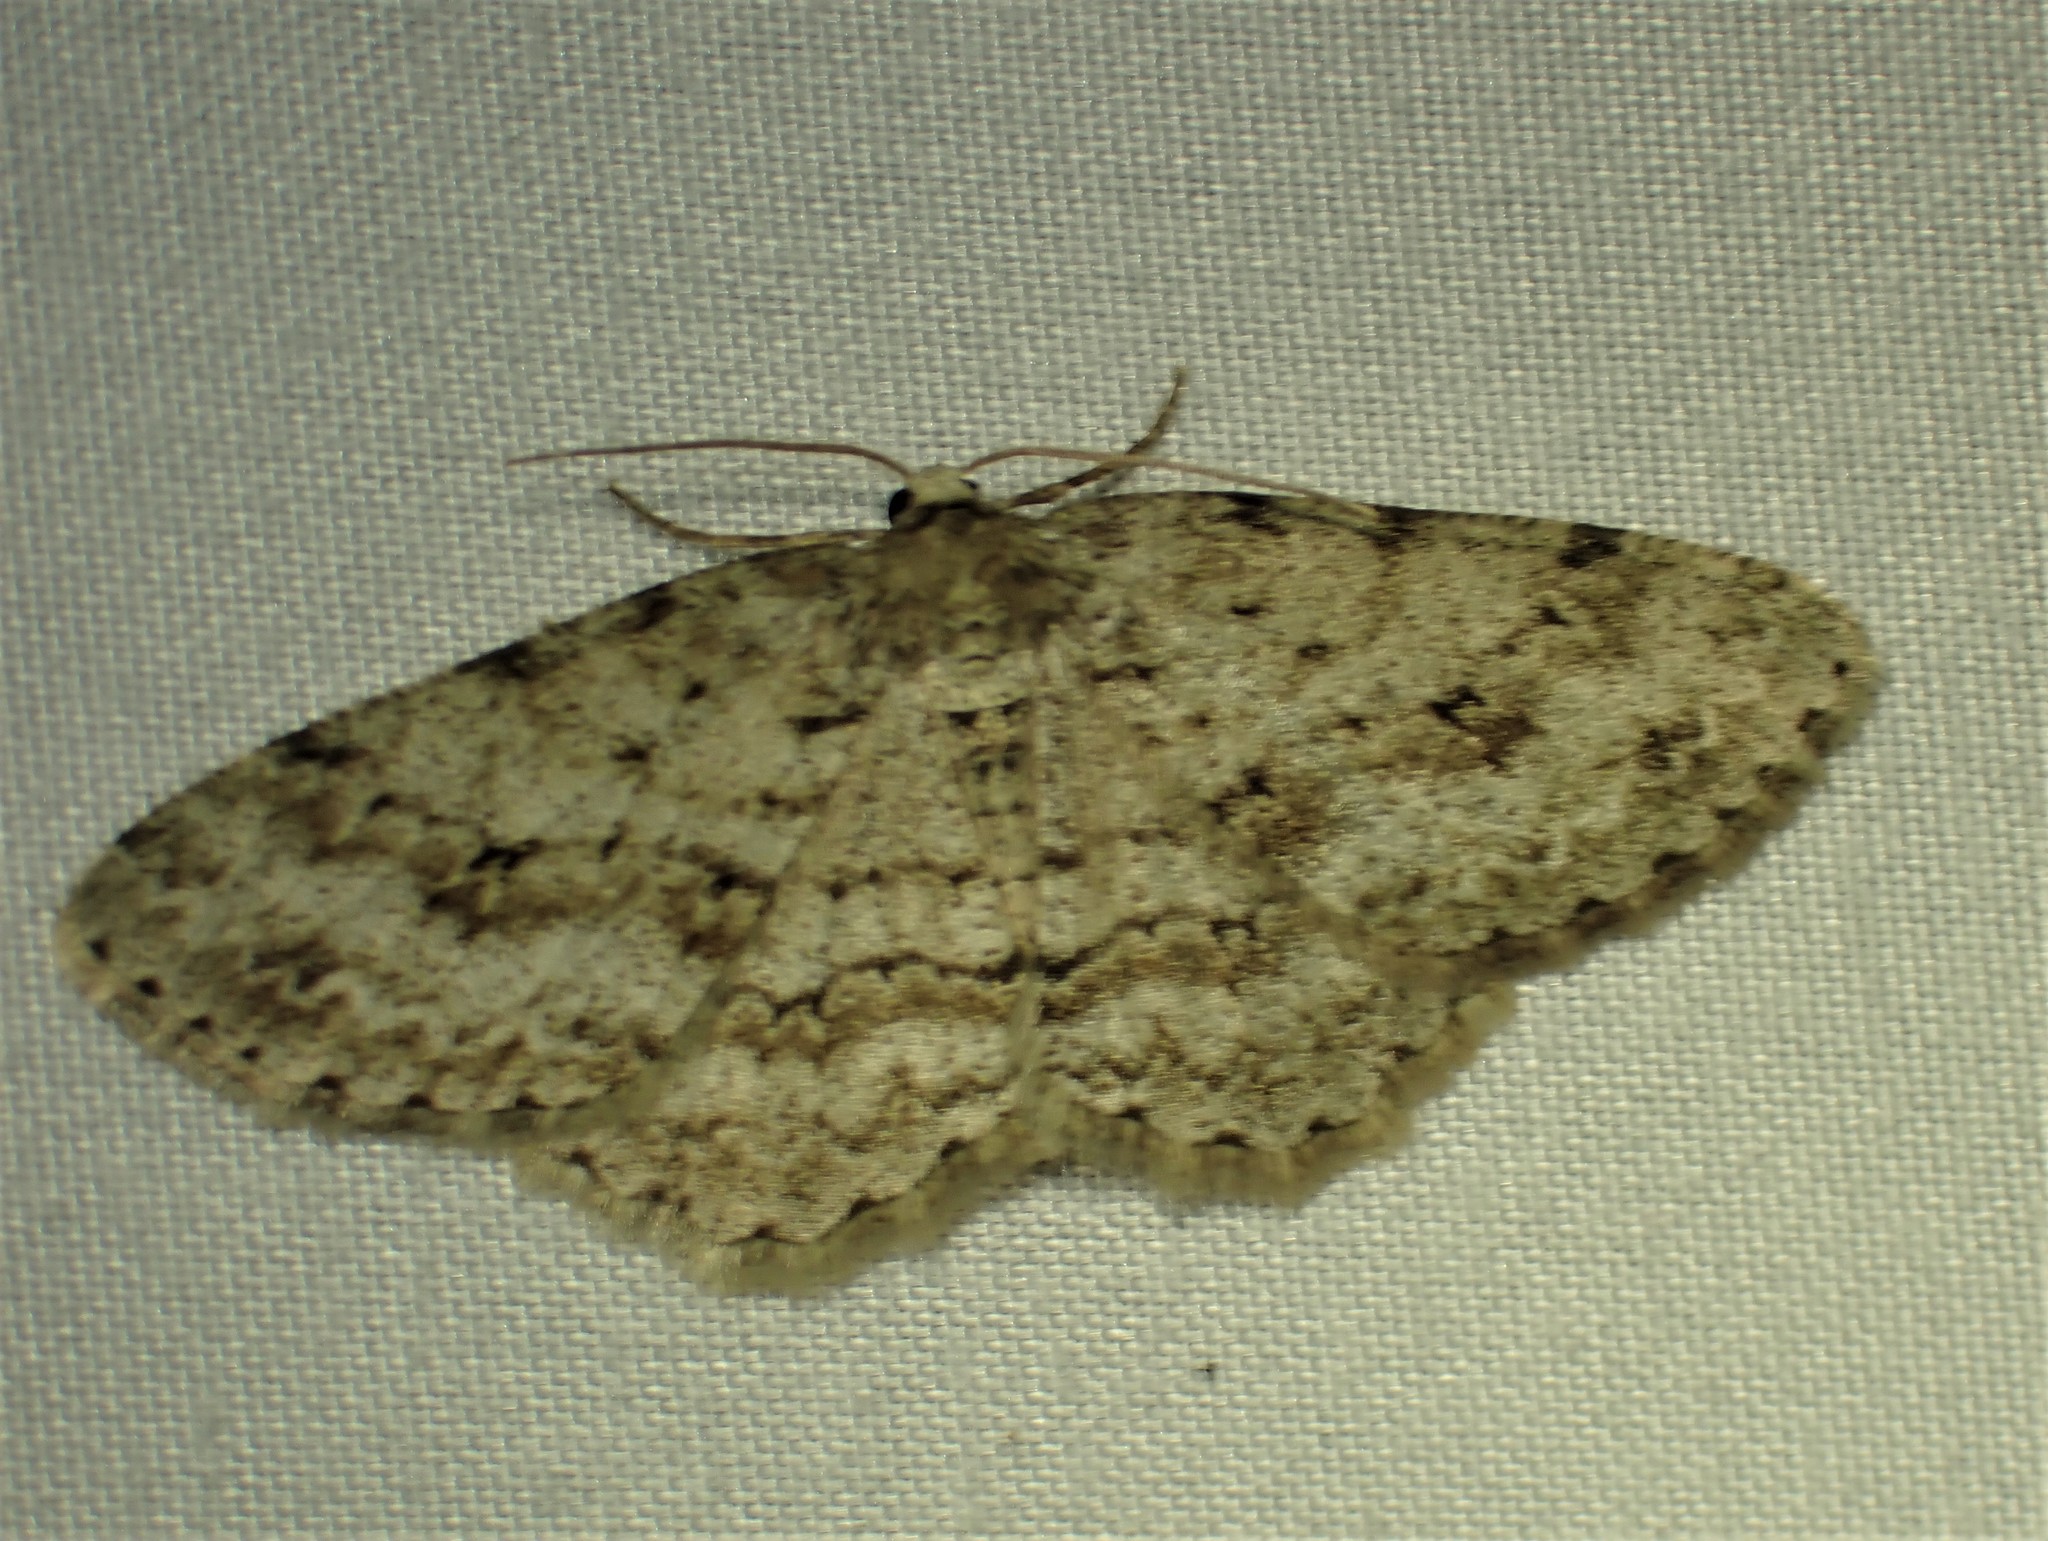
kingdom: Animalia
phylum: Arthropoda
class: Insecta
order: Lepidoptera
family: Geometridae
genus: Ectropis
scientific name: Ectropis crepuscularia
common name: Engrailed
